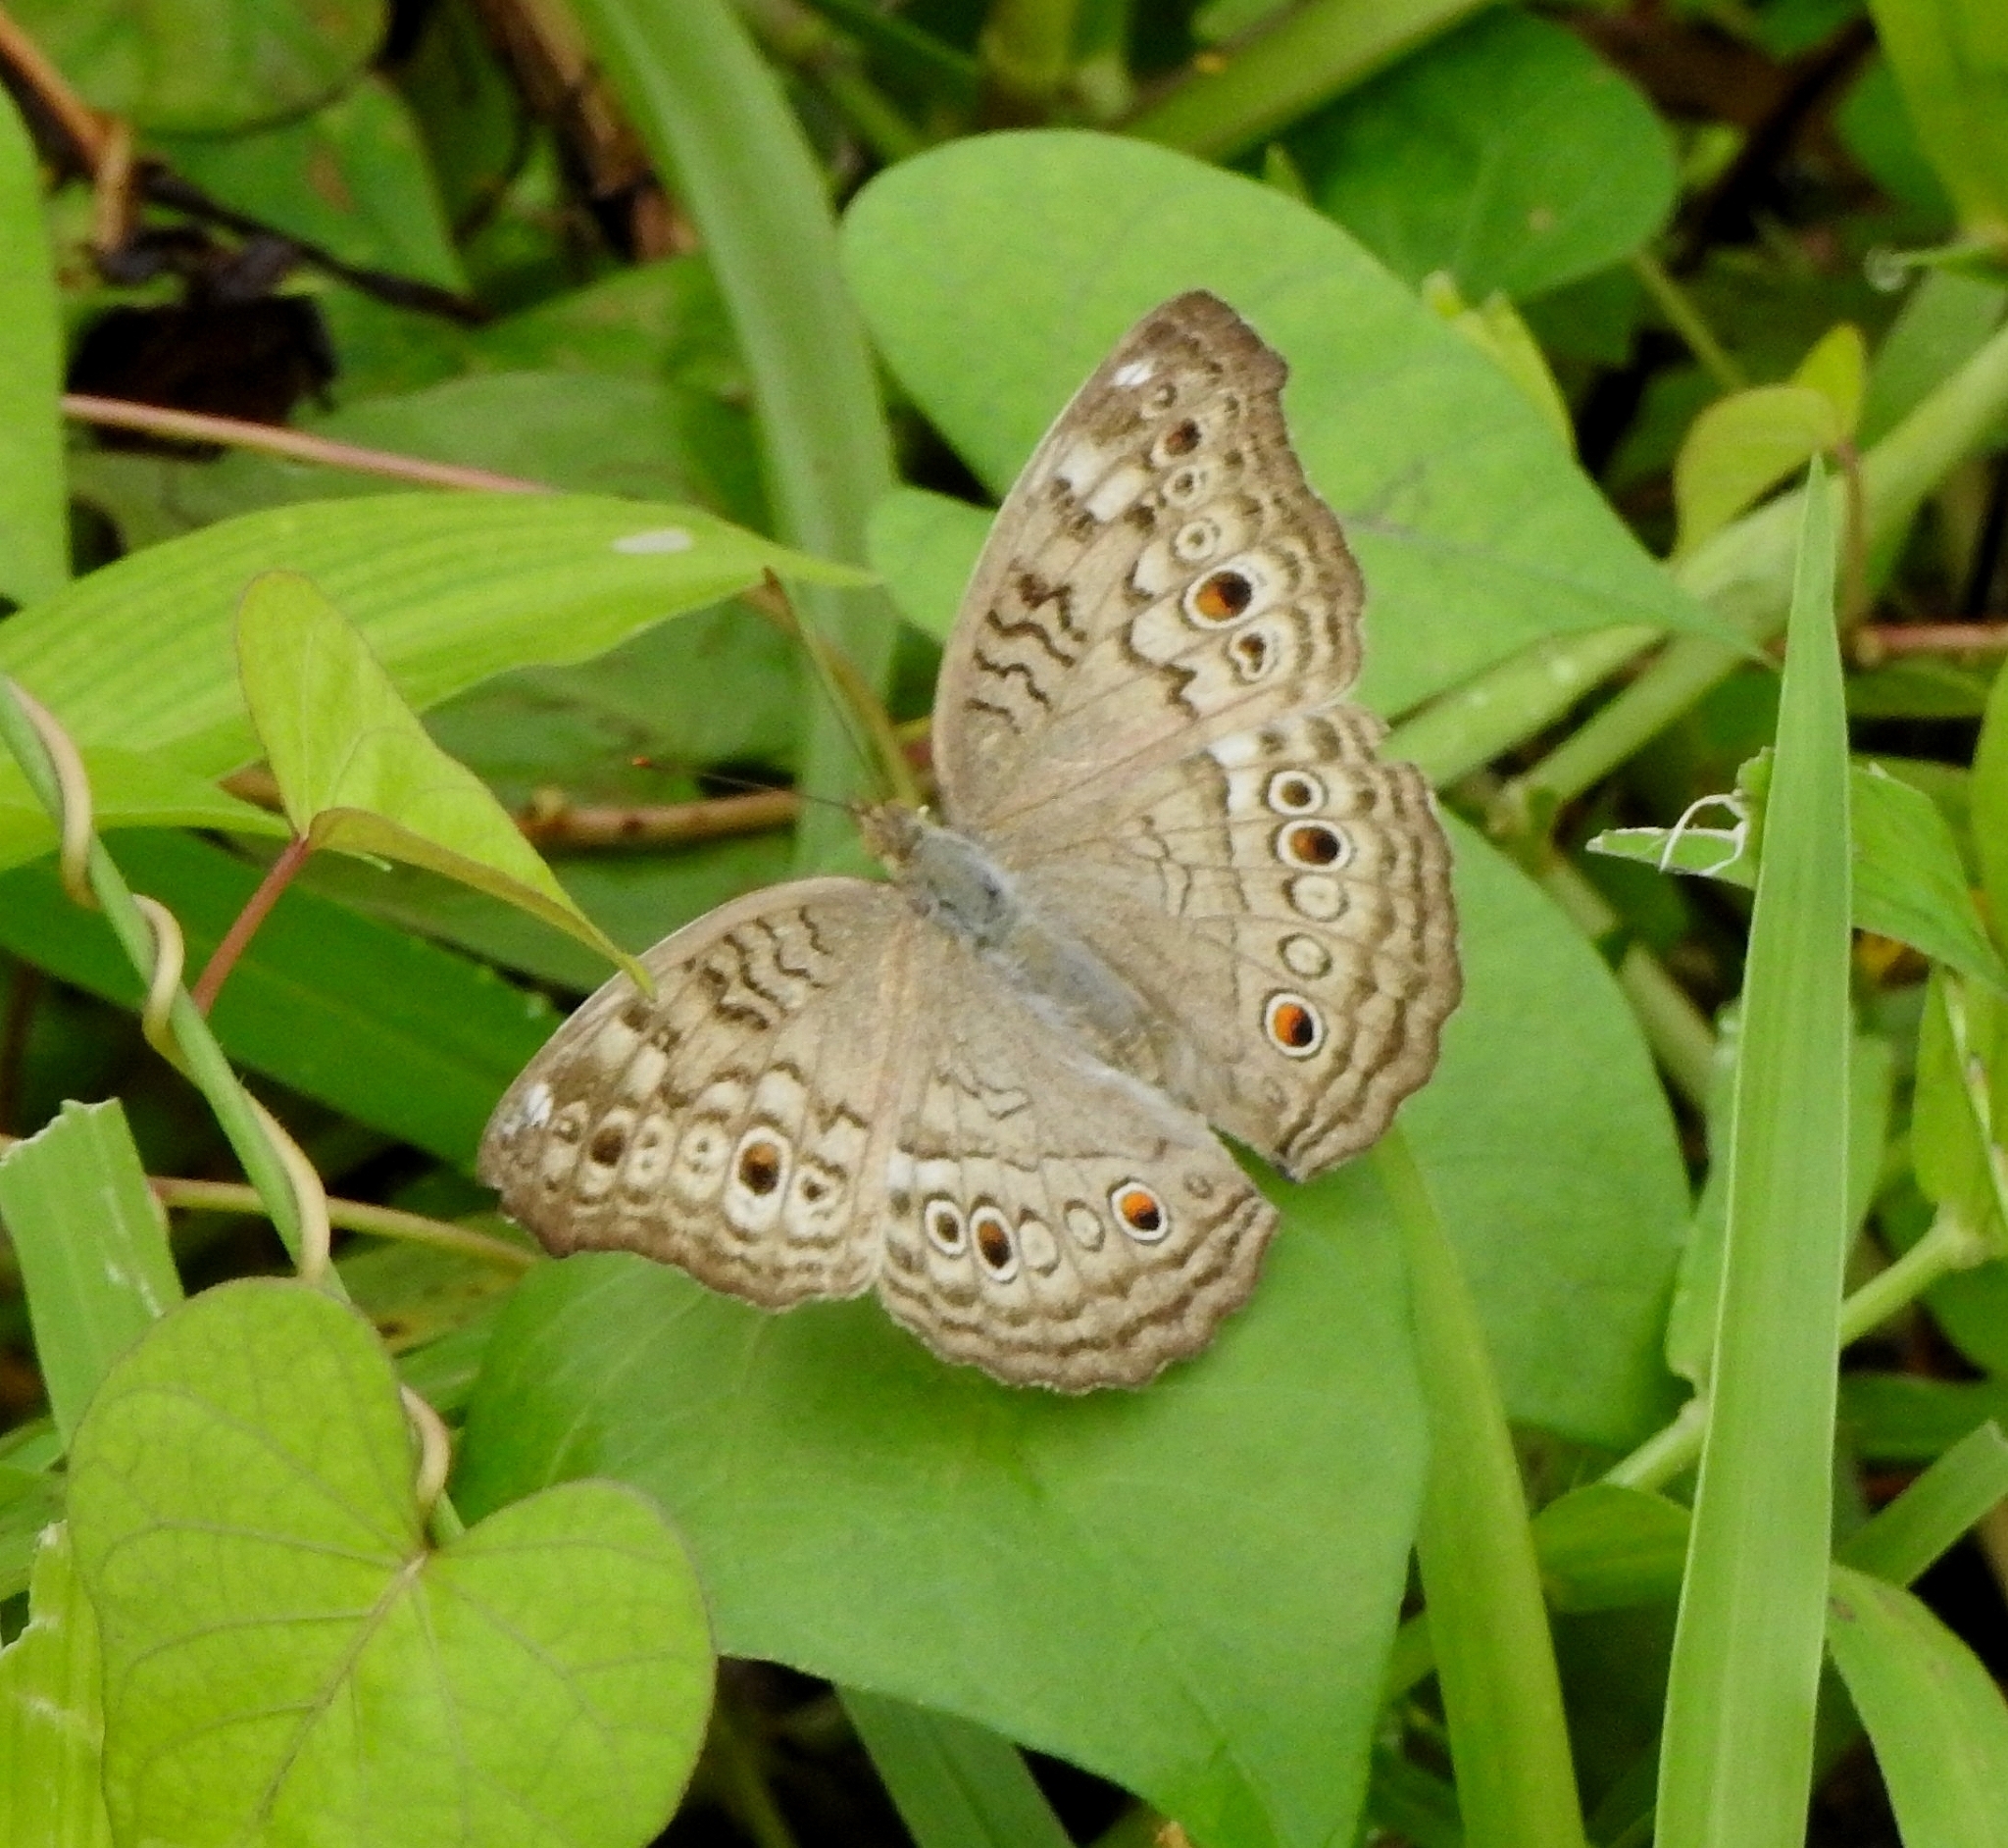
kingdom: Animalia
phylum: Arthropoda
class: Insecta
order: Lepidoptera
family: Nymphalidae
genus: Junonia
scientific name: Junonia atlites
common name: Grey pansy
